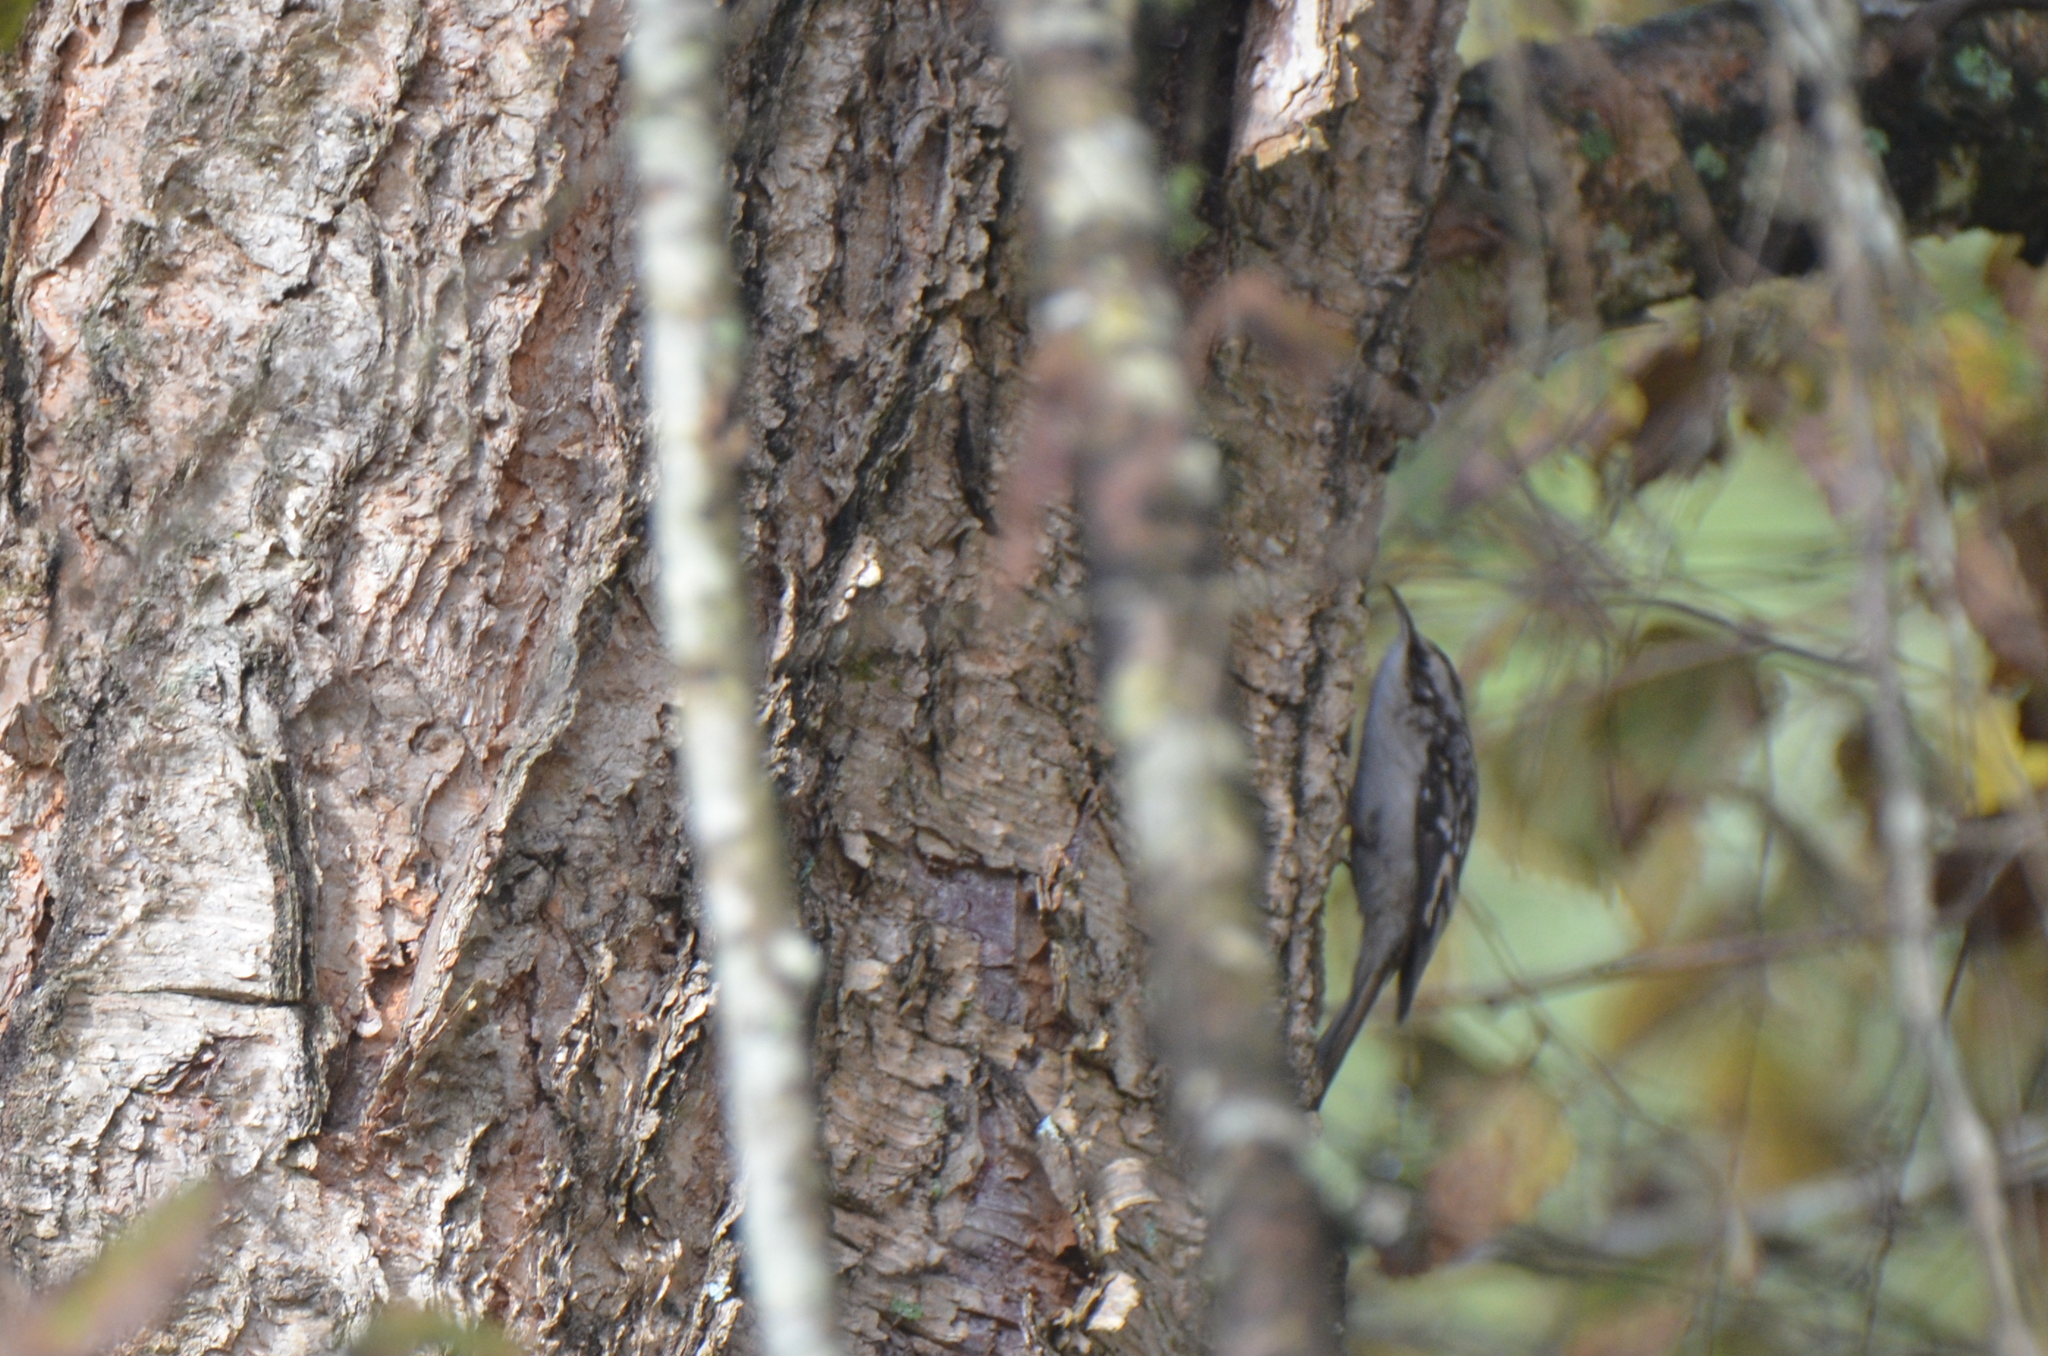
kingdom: Animalia
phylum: Chordata
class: Aves
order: Passeriformes
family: Certhiidae
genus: Certhia
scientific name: Certhia americana
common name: Brown creeper
